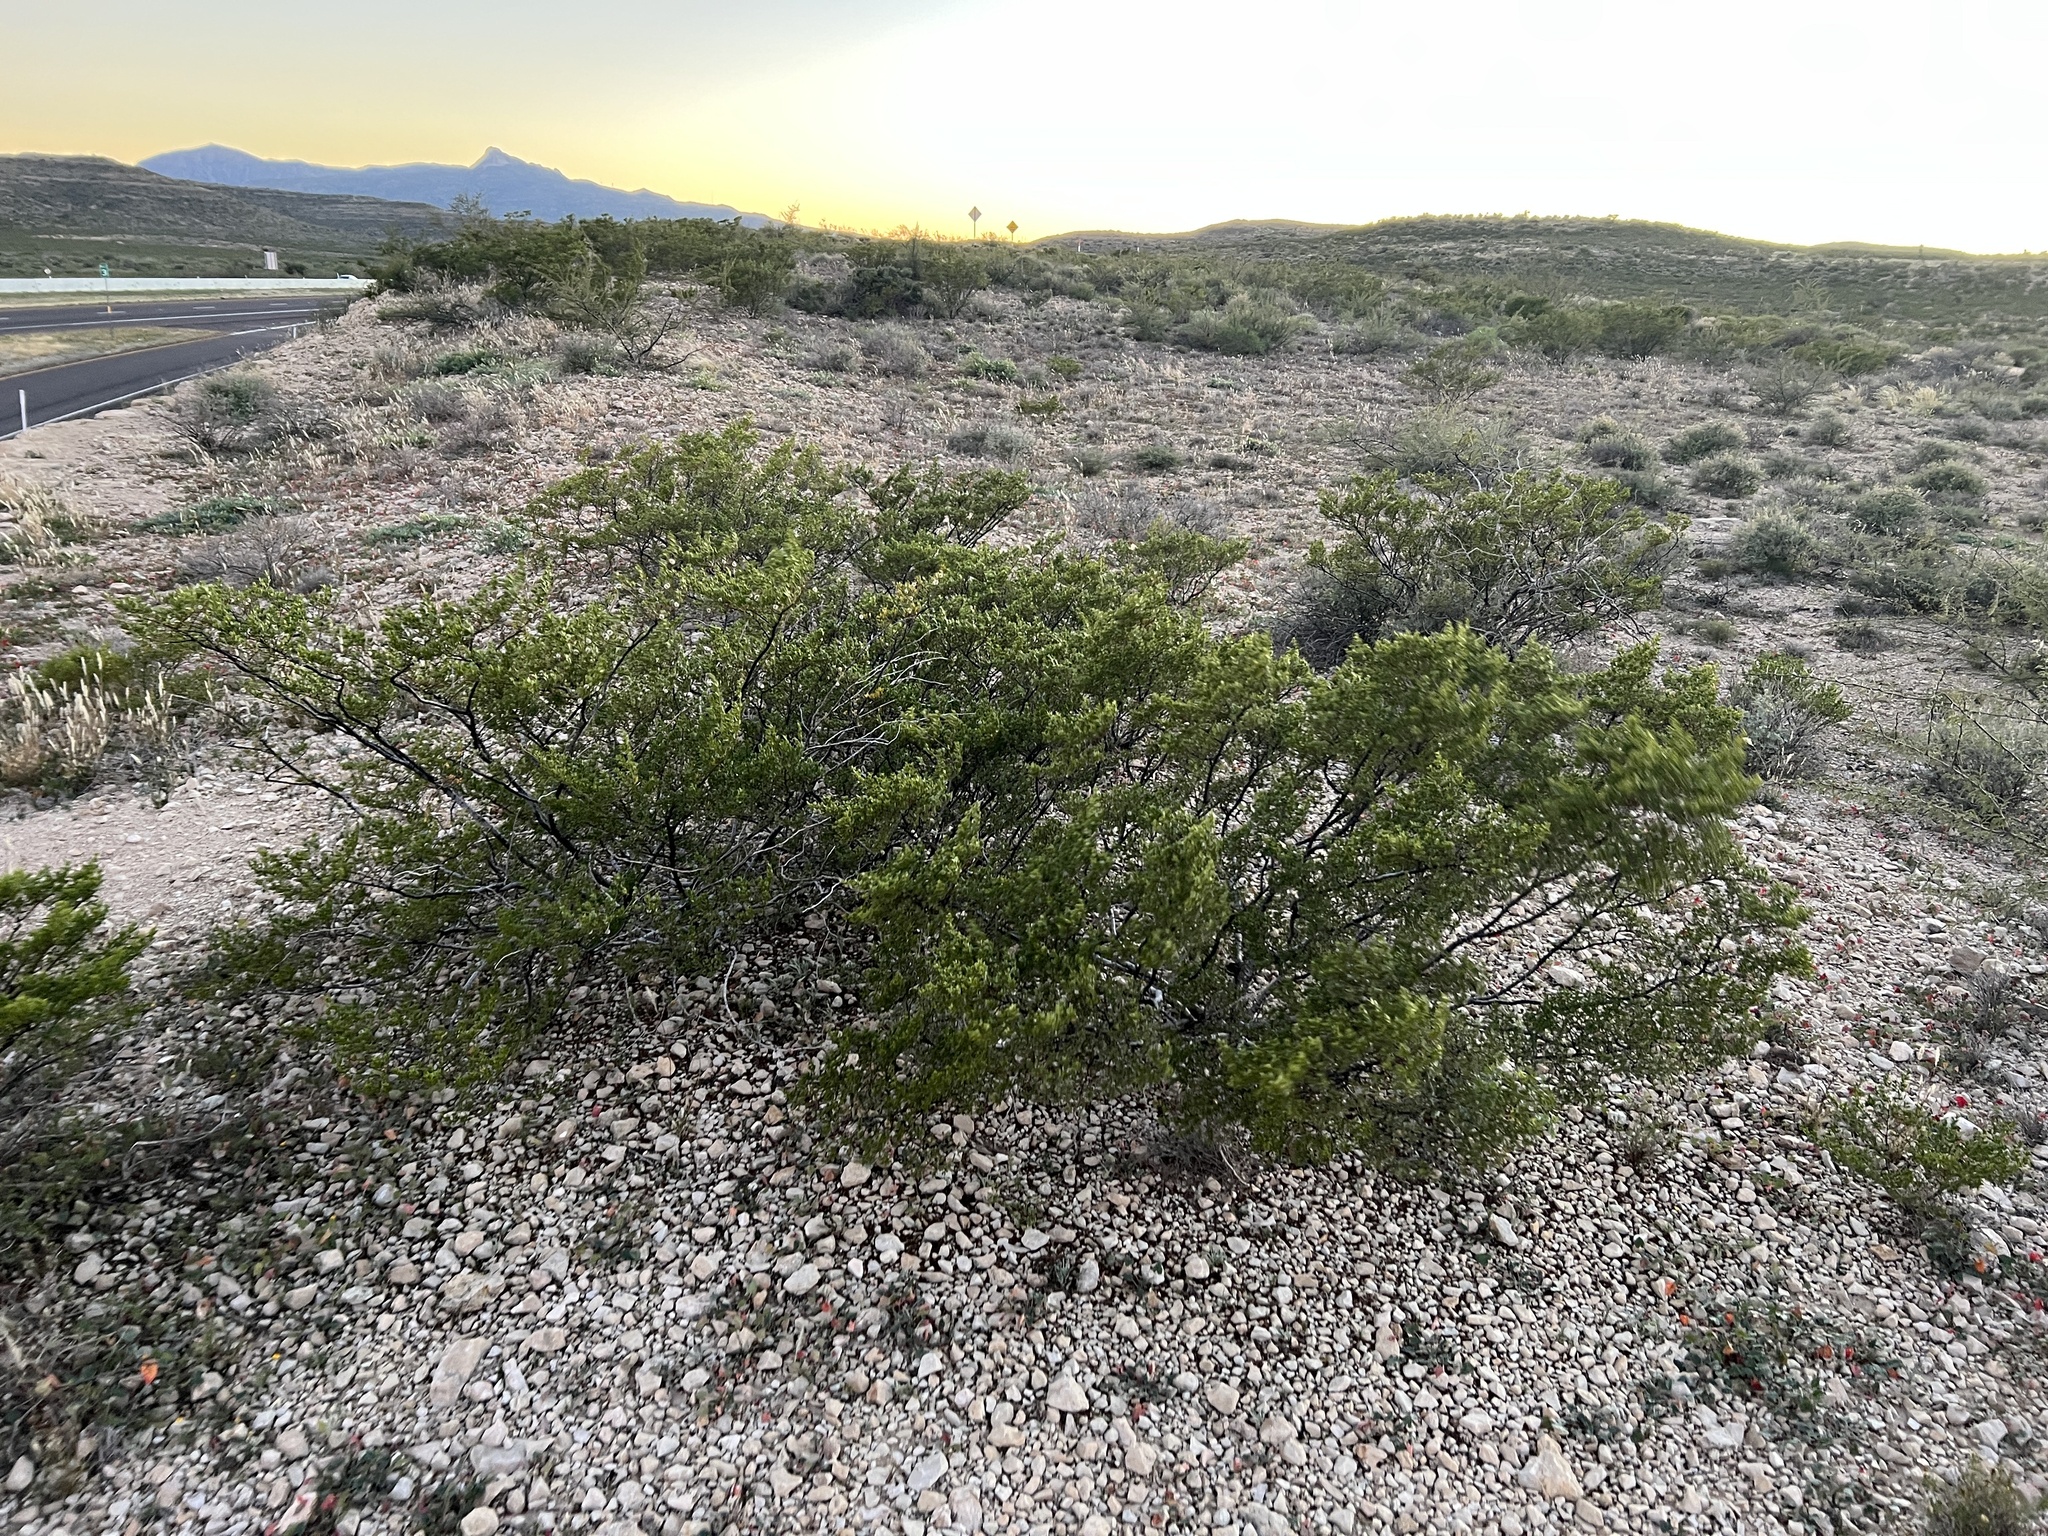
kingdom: Plantae
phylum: Tracheophyta
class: Magnoliopsida
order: Zygophyllales
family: Zygophyllaceae
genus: Larrea
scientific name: Larrea tridentata
